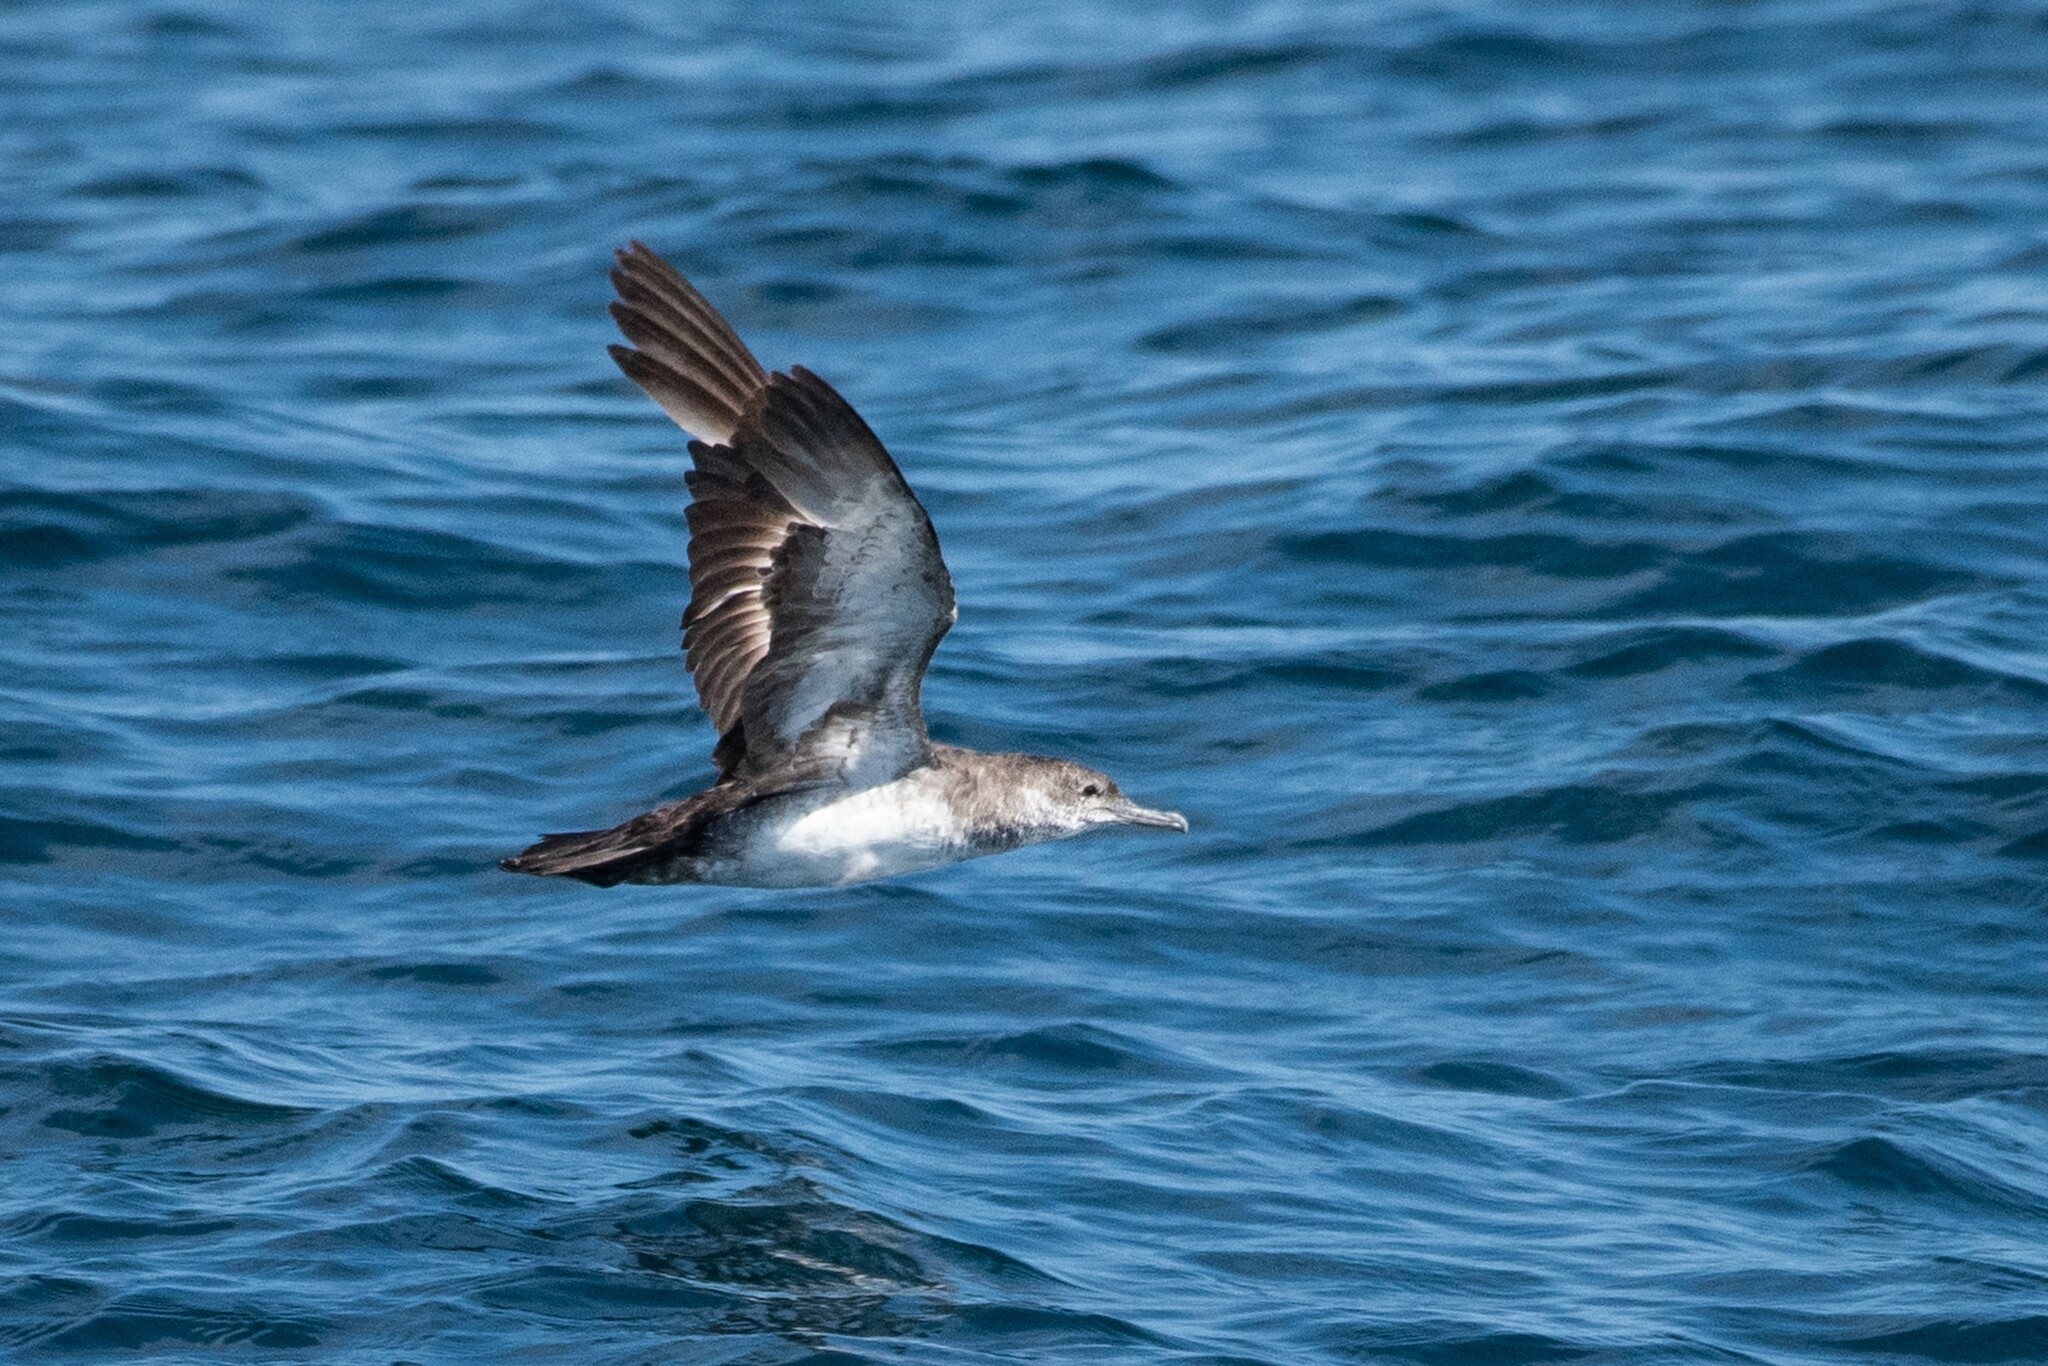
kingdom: Animalia
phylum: Chordata
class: Aves
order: Procellariiformes
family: Procellariidae
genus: Puffinus
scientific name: Puffinus opisthomelas
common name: Black-vented shearwater
